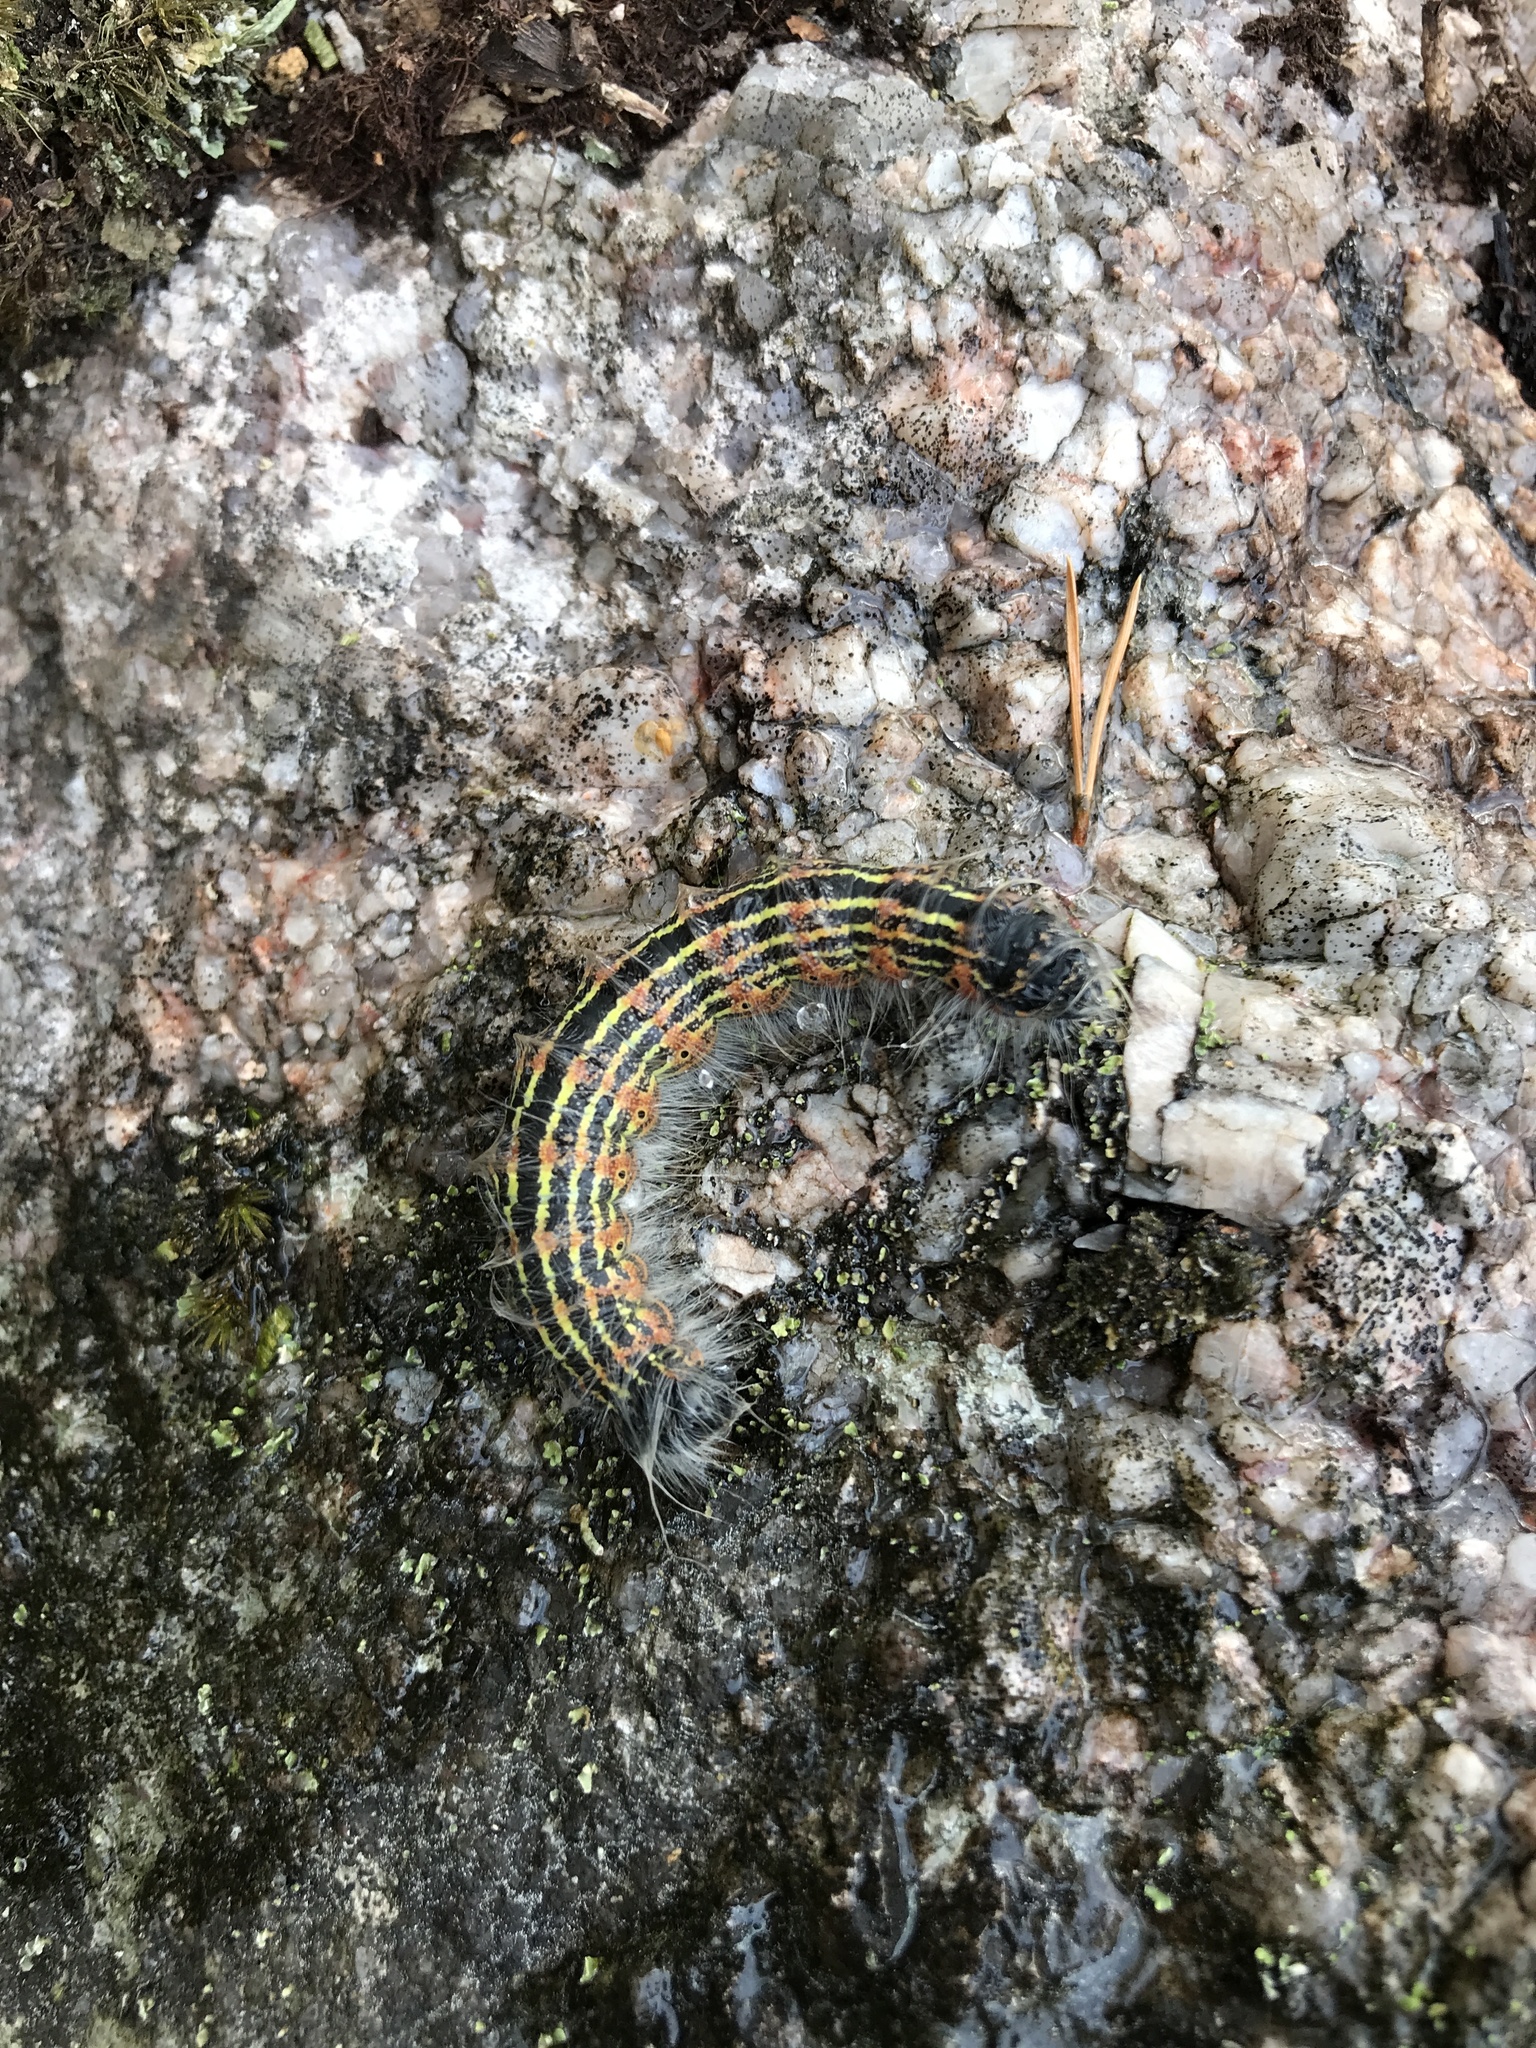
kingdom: Animalia
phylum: Arthropoda
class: Insecta
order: Lepidoptera
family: Notodontidae
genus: Phalera
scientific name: Phalera bucephala
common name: Buff-tip
